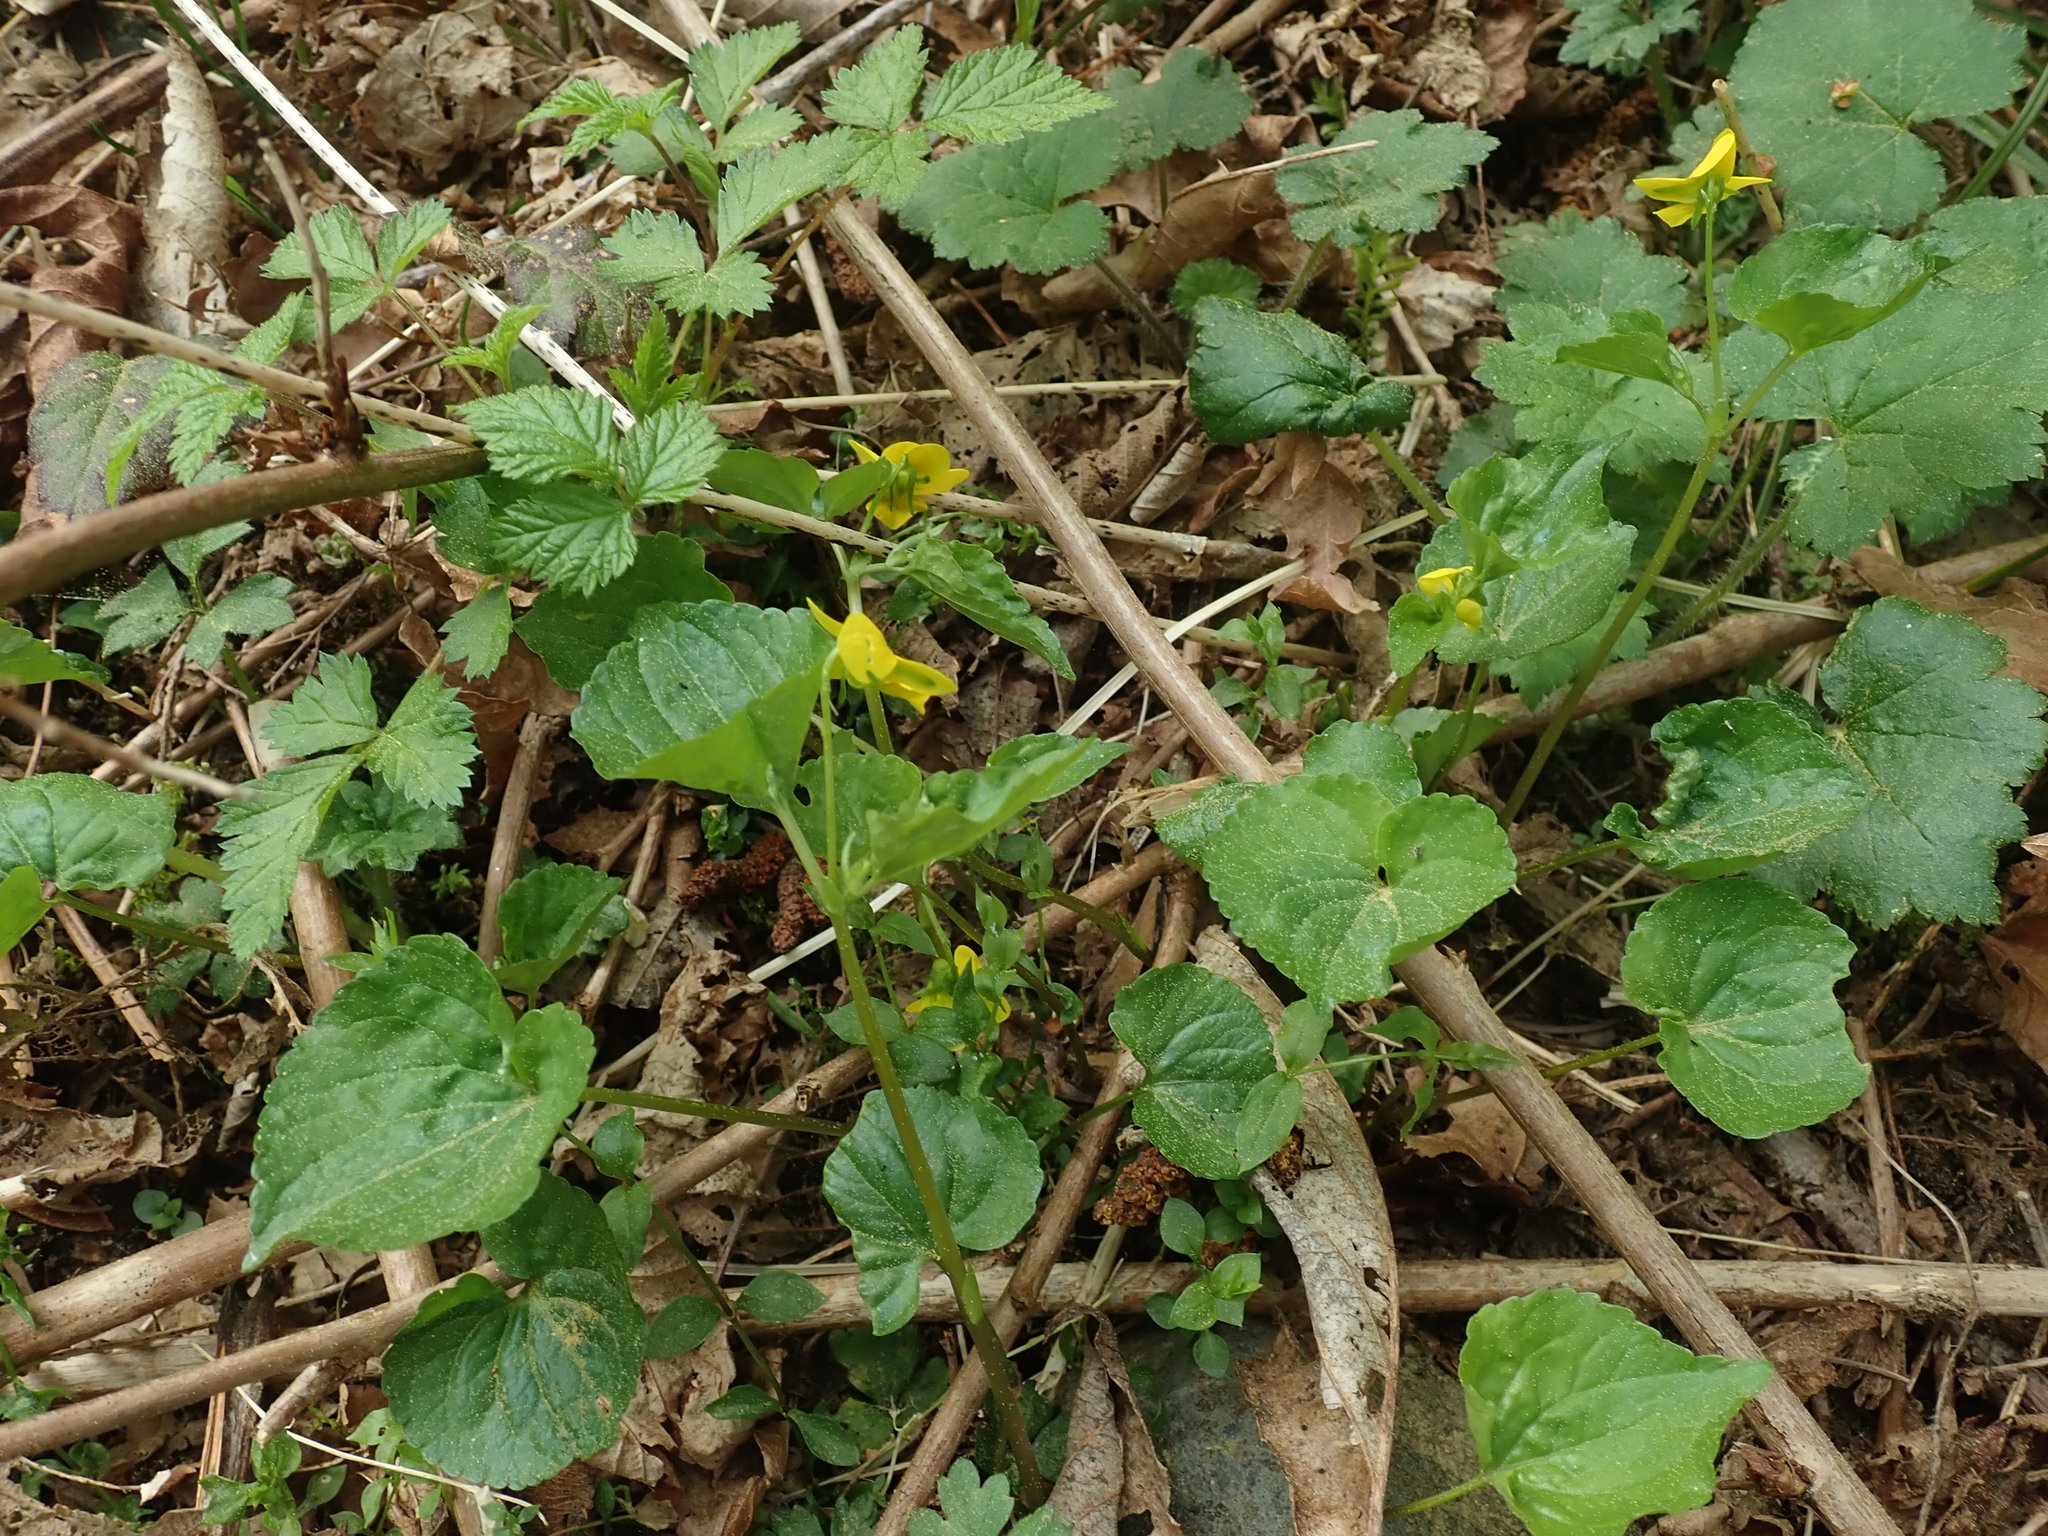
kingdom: Plantae
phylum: Tracheophyta
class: Magnoliopsida
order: Malpighiales
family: Violaceae
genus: Viola
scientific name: Viola glabella
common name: Stream violet
